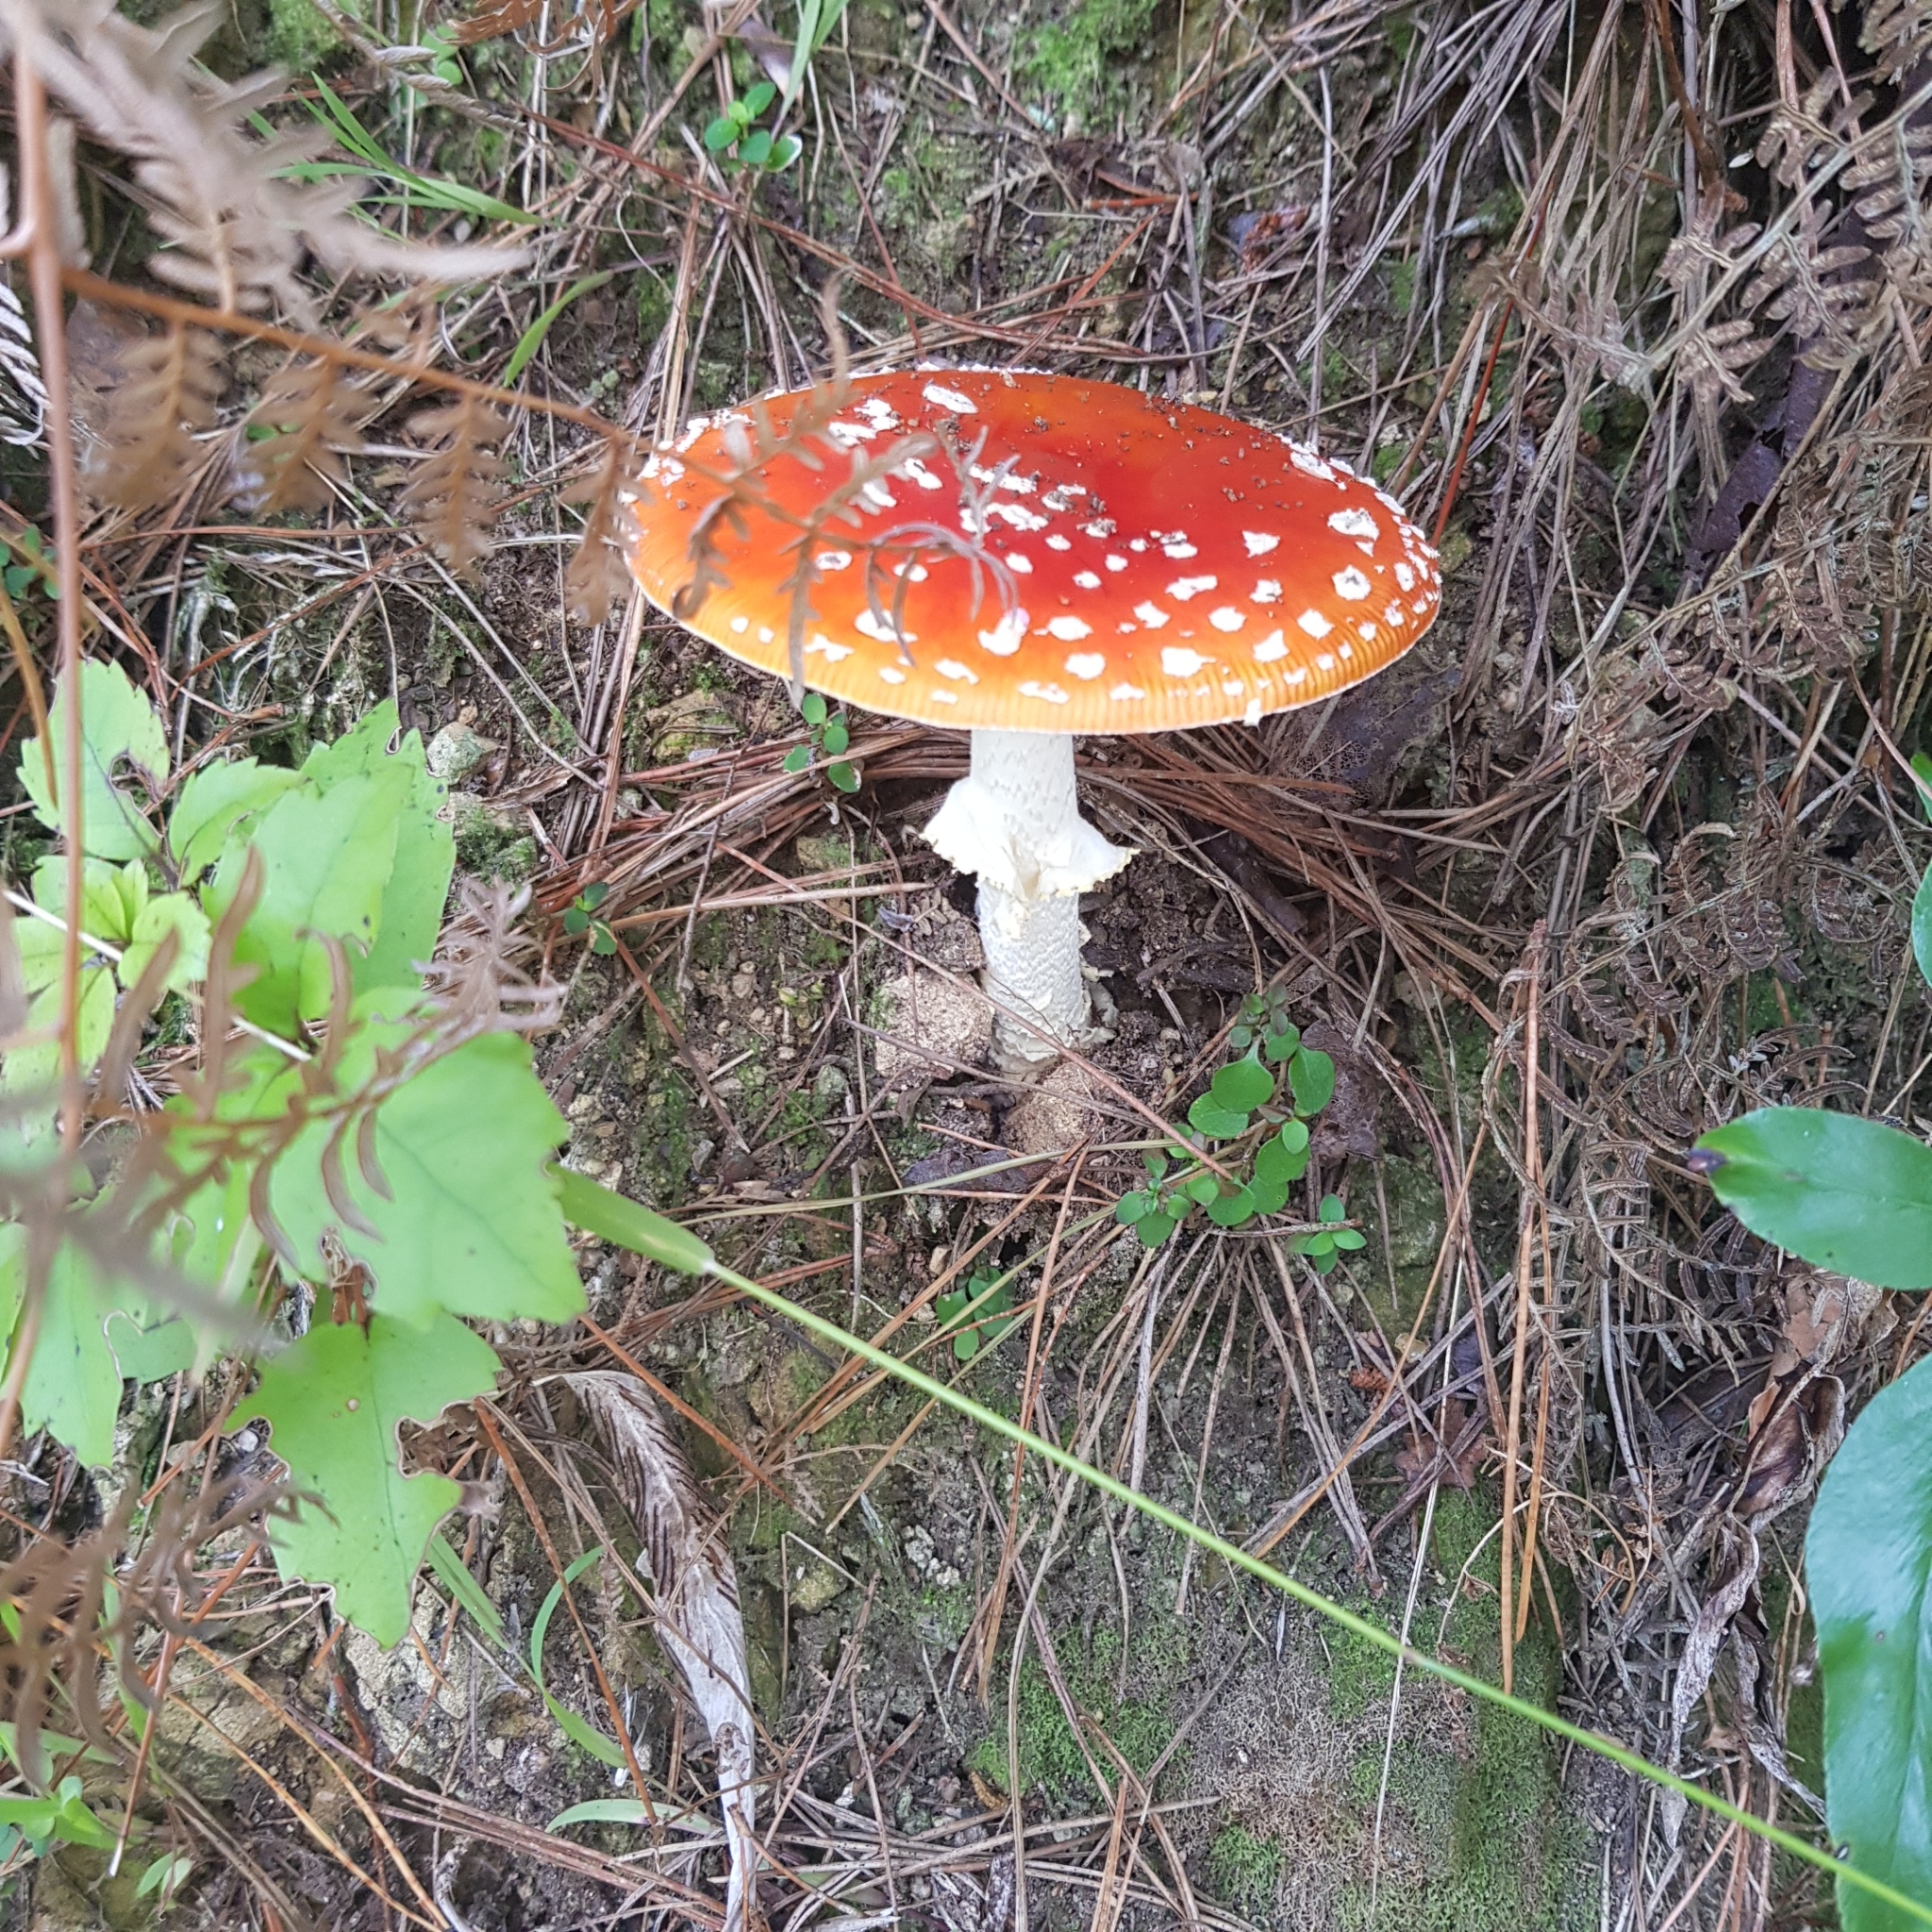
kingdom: Fungi
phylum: Basidiomycota
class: Agaricomycetes
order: Agaricales
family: Amanitaceae
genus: Amanita
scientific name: Amanita muscaria
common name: Fly agaric
